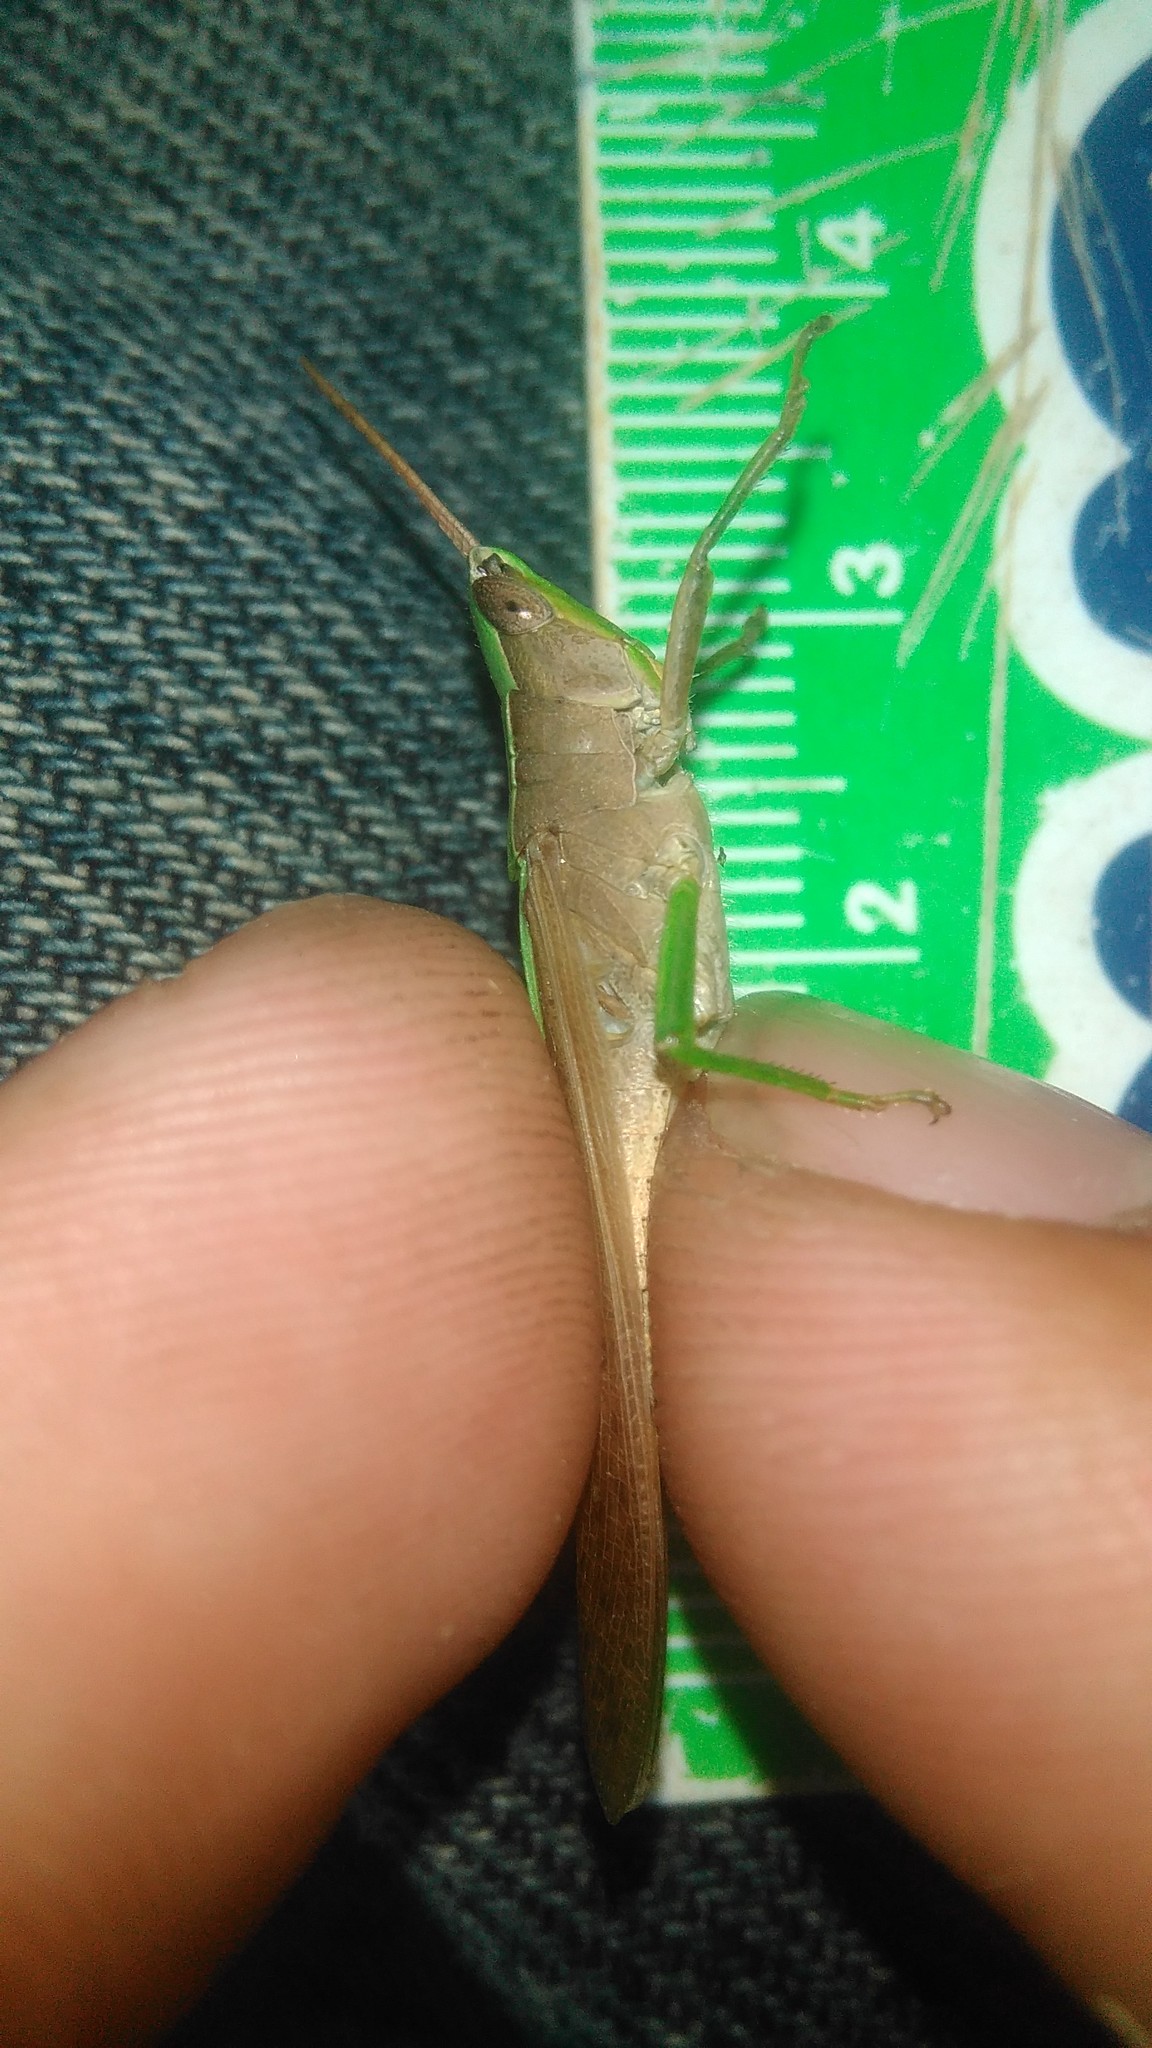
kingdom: Animalia
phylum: Arthropoda
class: Insecta
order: Orthoptera
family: Acrididae
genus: Metaleptea
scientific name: Metaleptea adspersa
